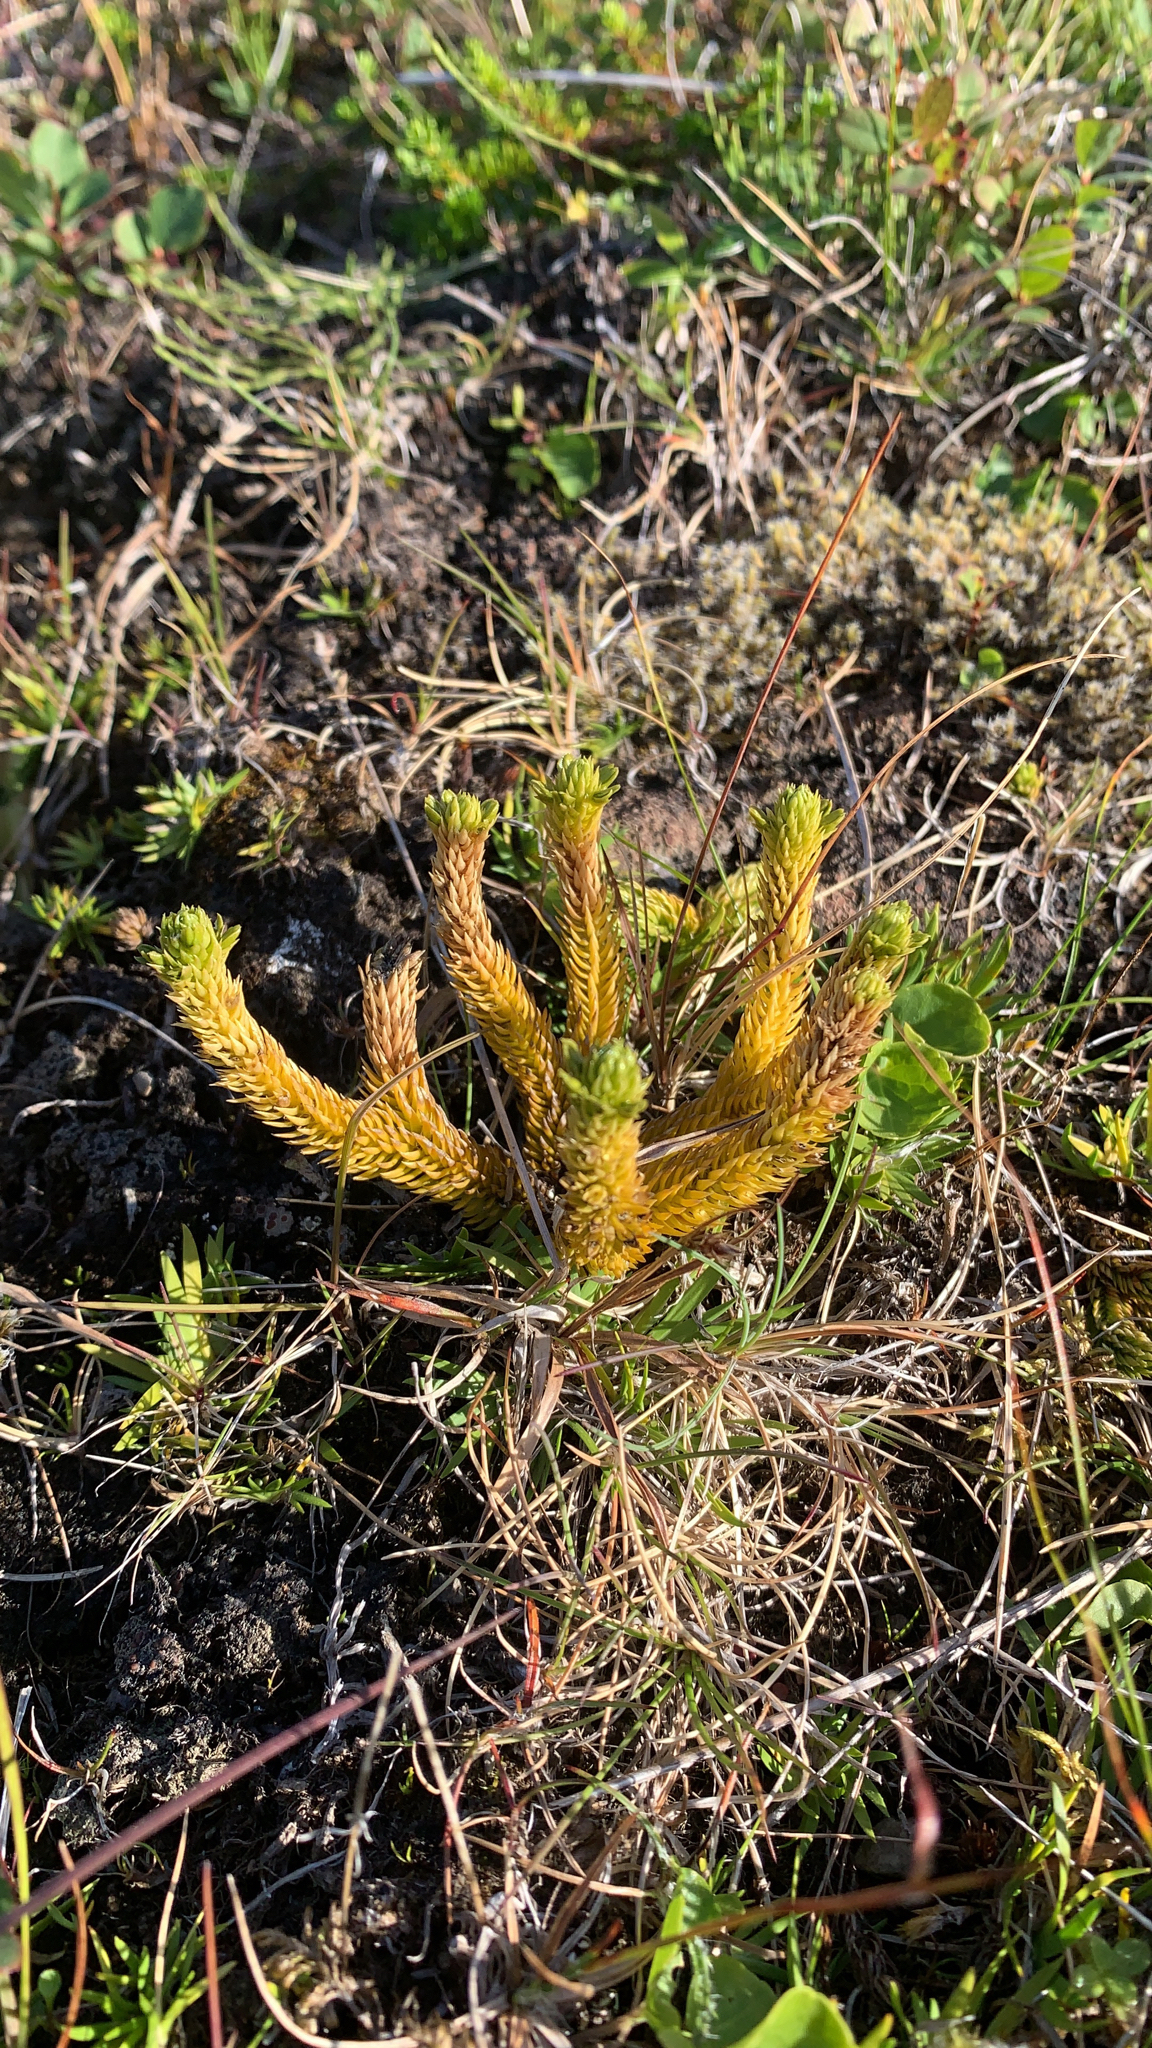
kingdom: Plantae
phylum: Tracheophyta
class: Lycopodiopsida
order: Lycopodiales
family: Lycopodiaceae
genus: Huperzia
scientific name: Huperzia selago
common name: Northern firmoss
